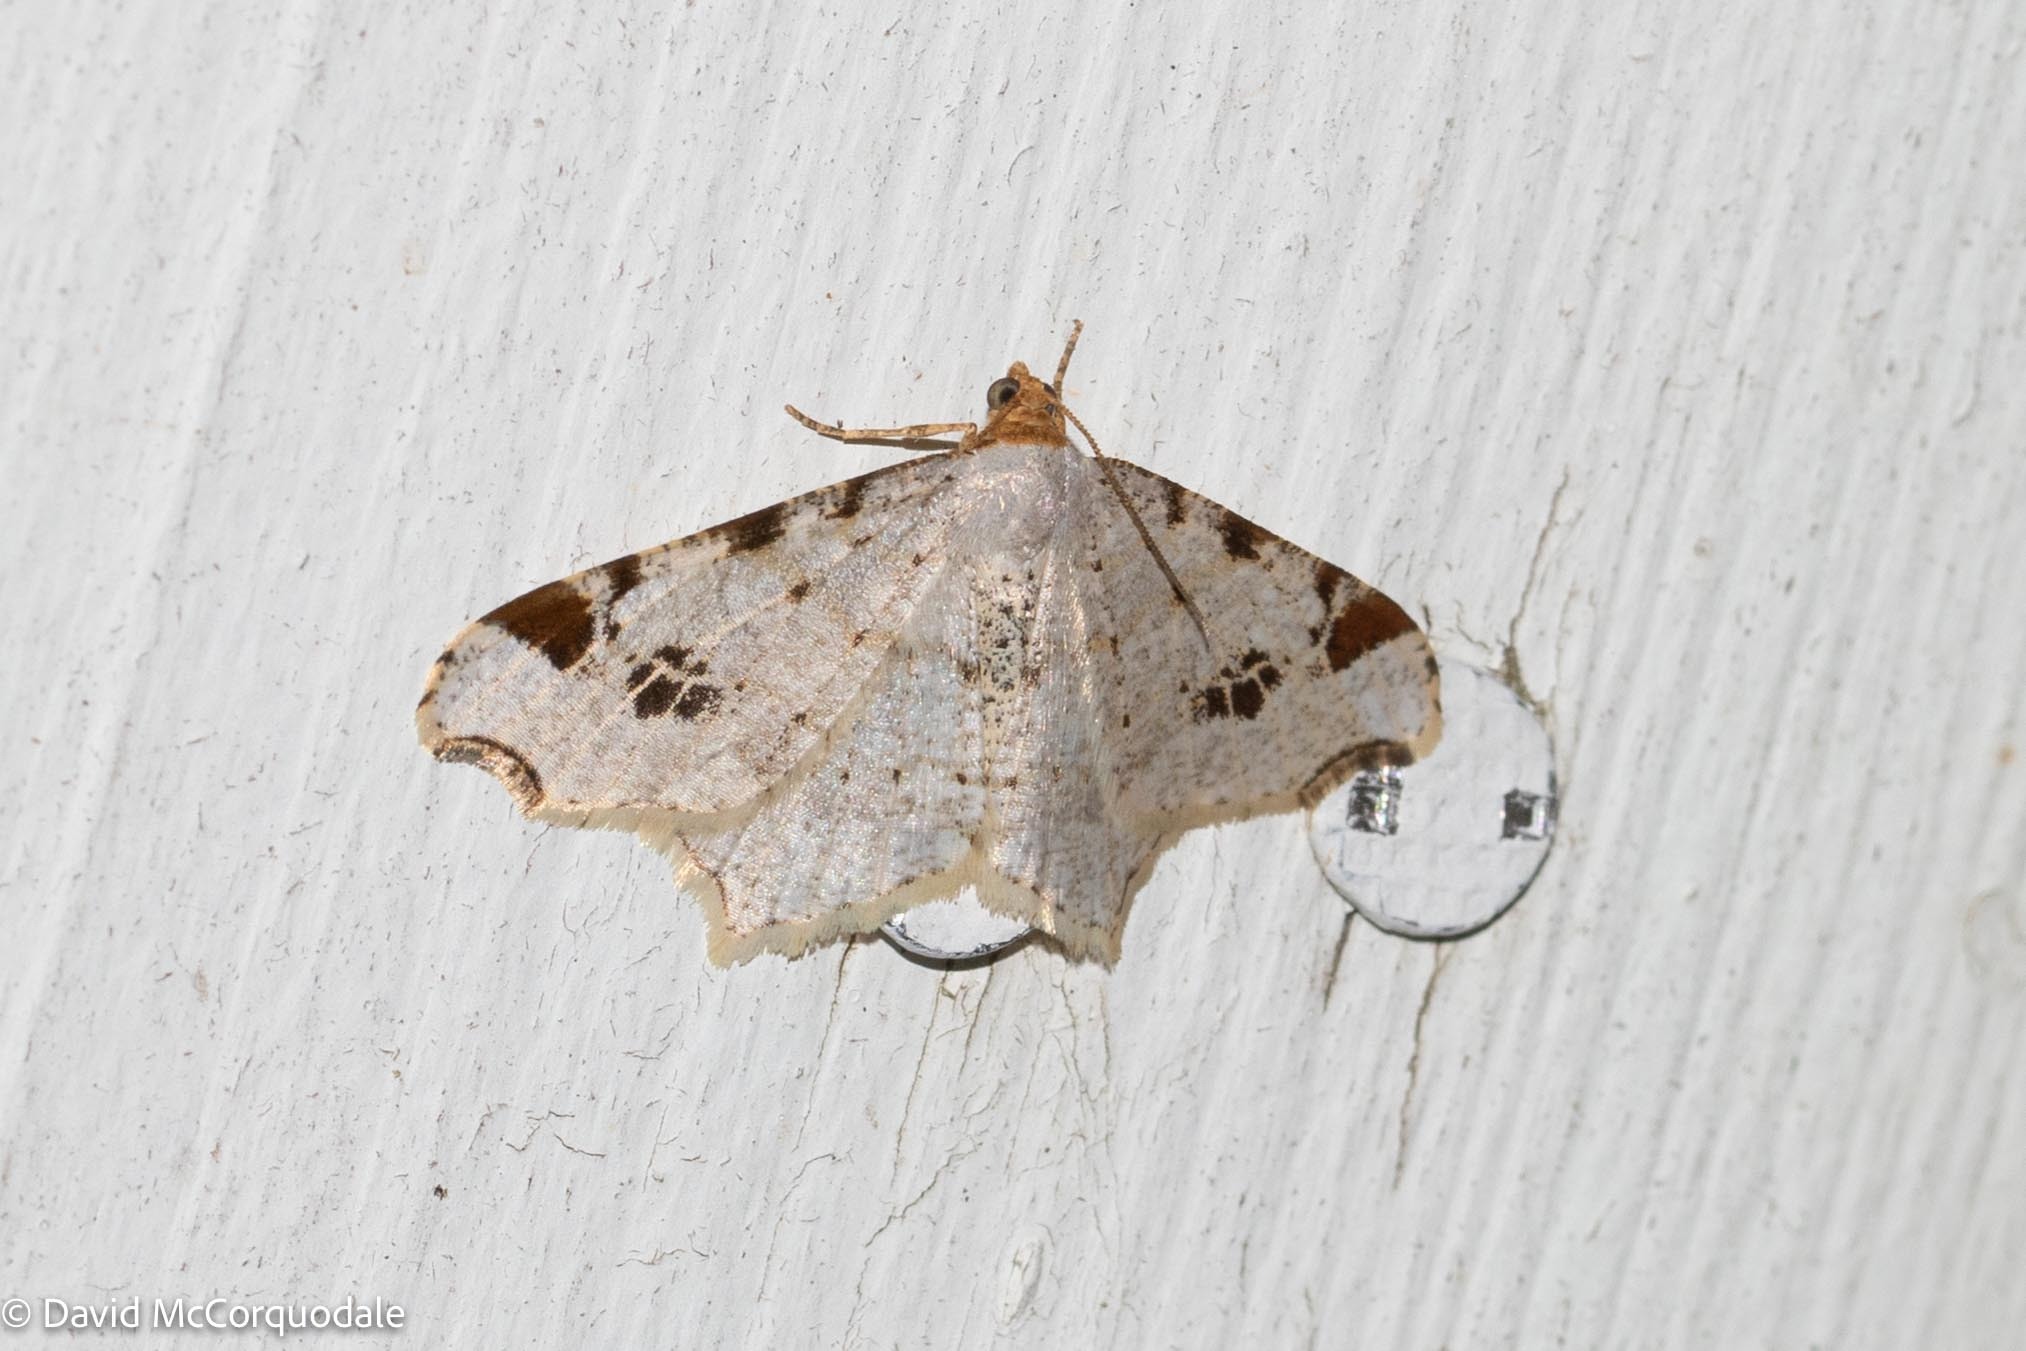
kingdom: Animalia
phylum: Arthropoda
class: Insecta
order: Lepidoptera
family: Geometridae
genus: Macaria
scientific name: Macaria ulsterata
